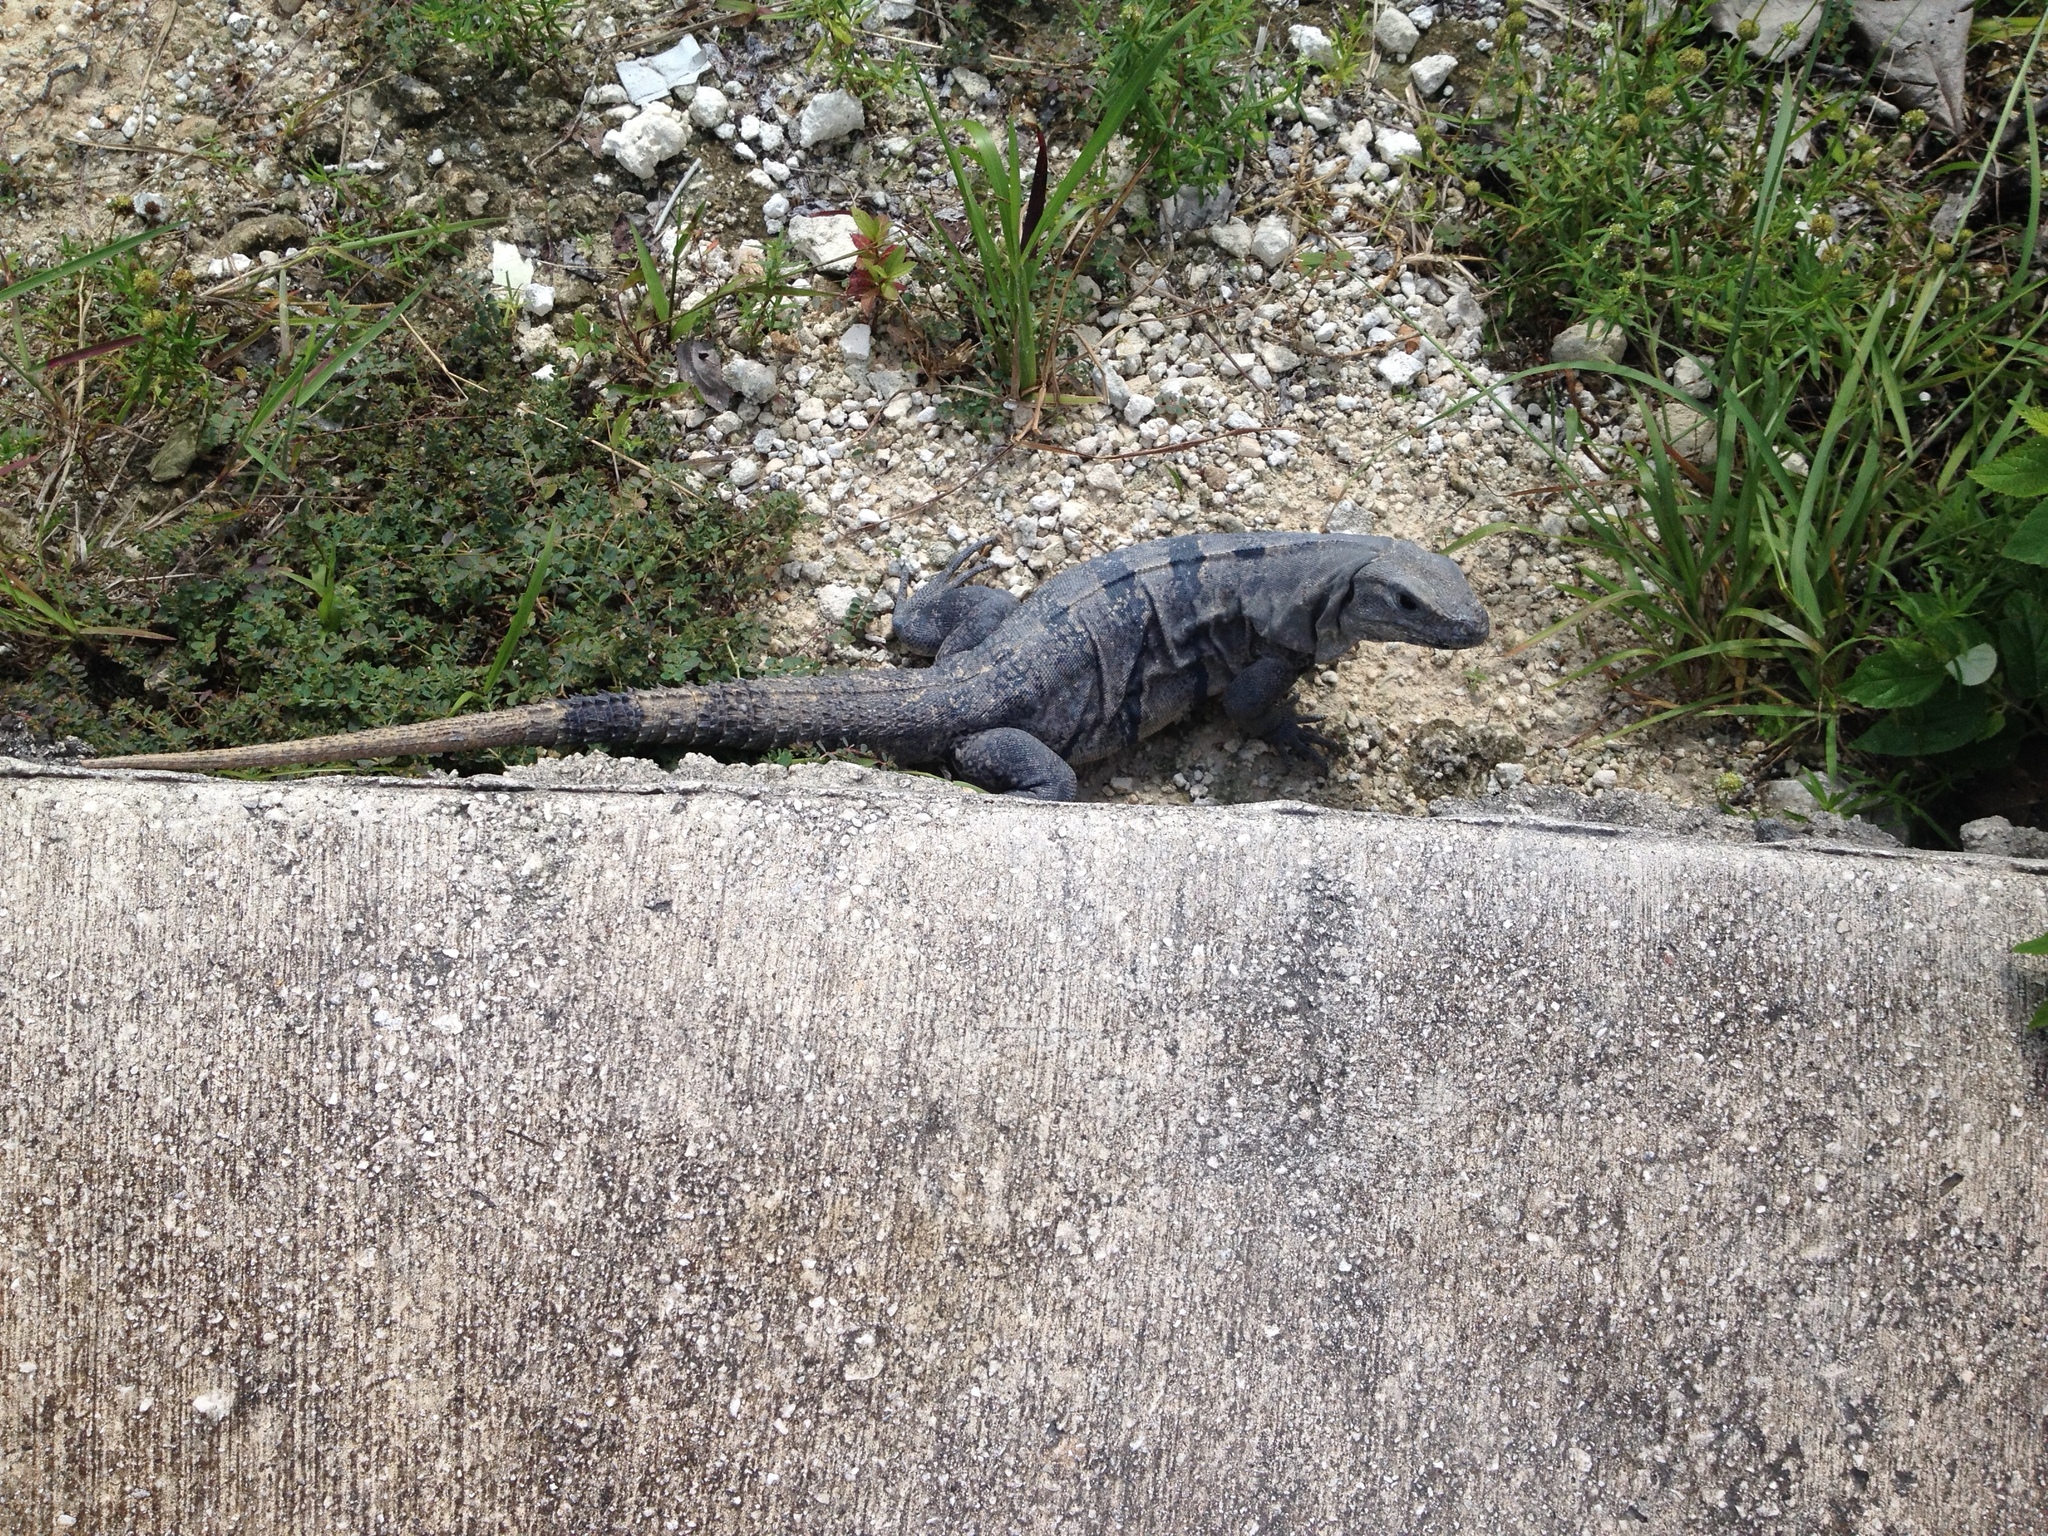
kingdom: Animalia
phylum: Chordata
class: Squamata
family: Iguanidae
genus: Ctenosaura
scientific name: Ctenosaura similis
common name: Black spiny-tailed iguana
